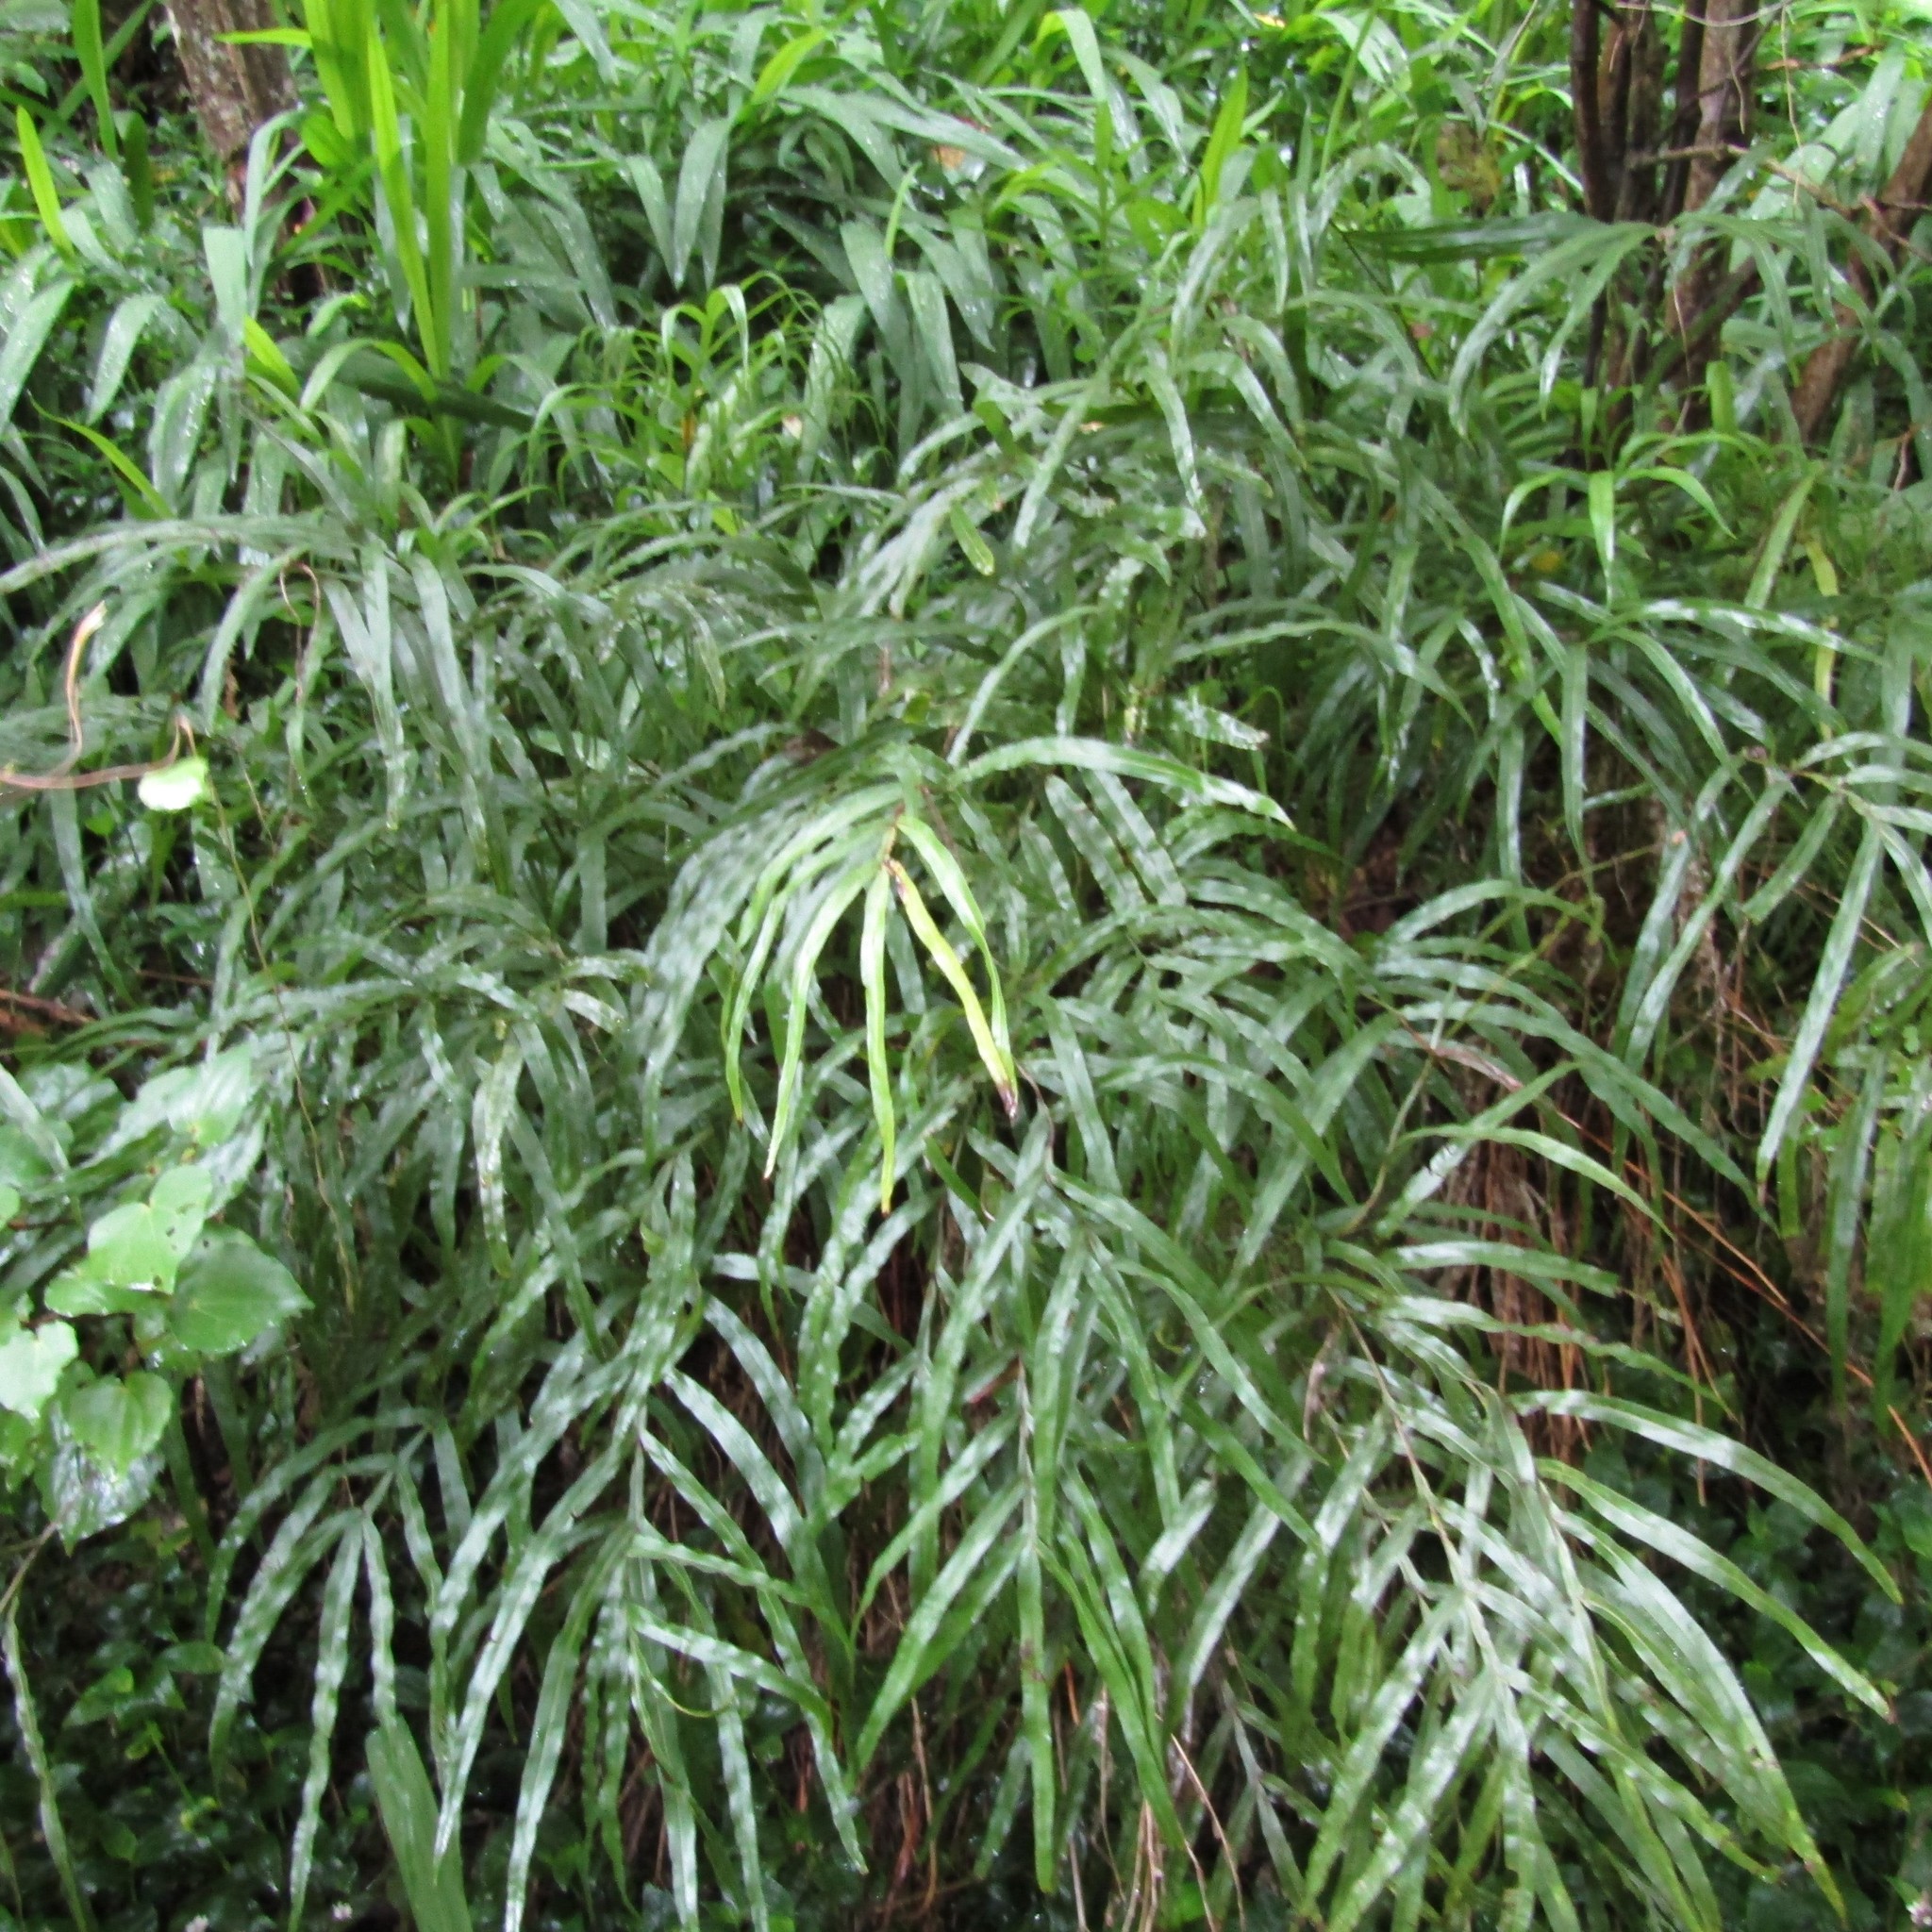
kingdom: Plantae
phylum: Tracheophyta
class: Polypodiopsida
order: Polypodiales
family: Pteridaceae
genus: Pteris
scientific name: Pteris cretica
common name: Ribbon fern
